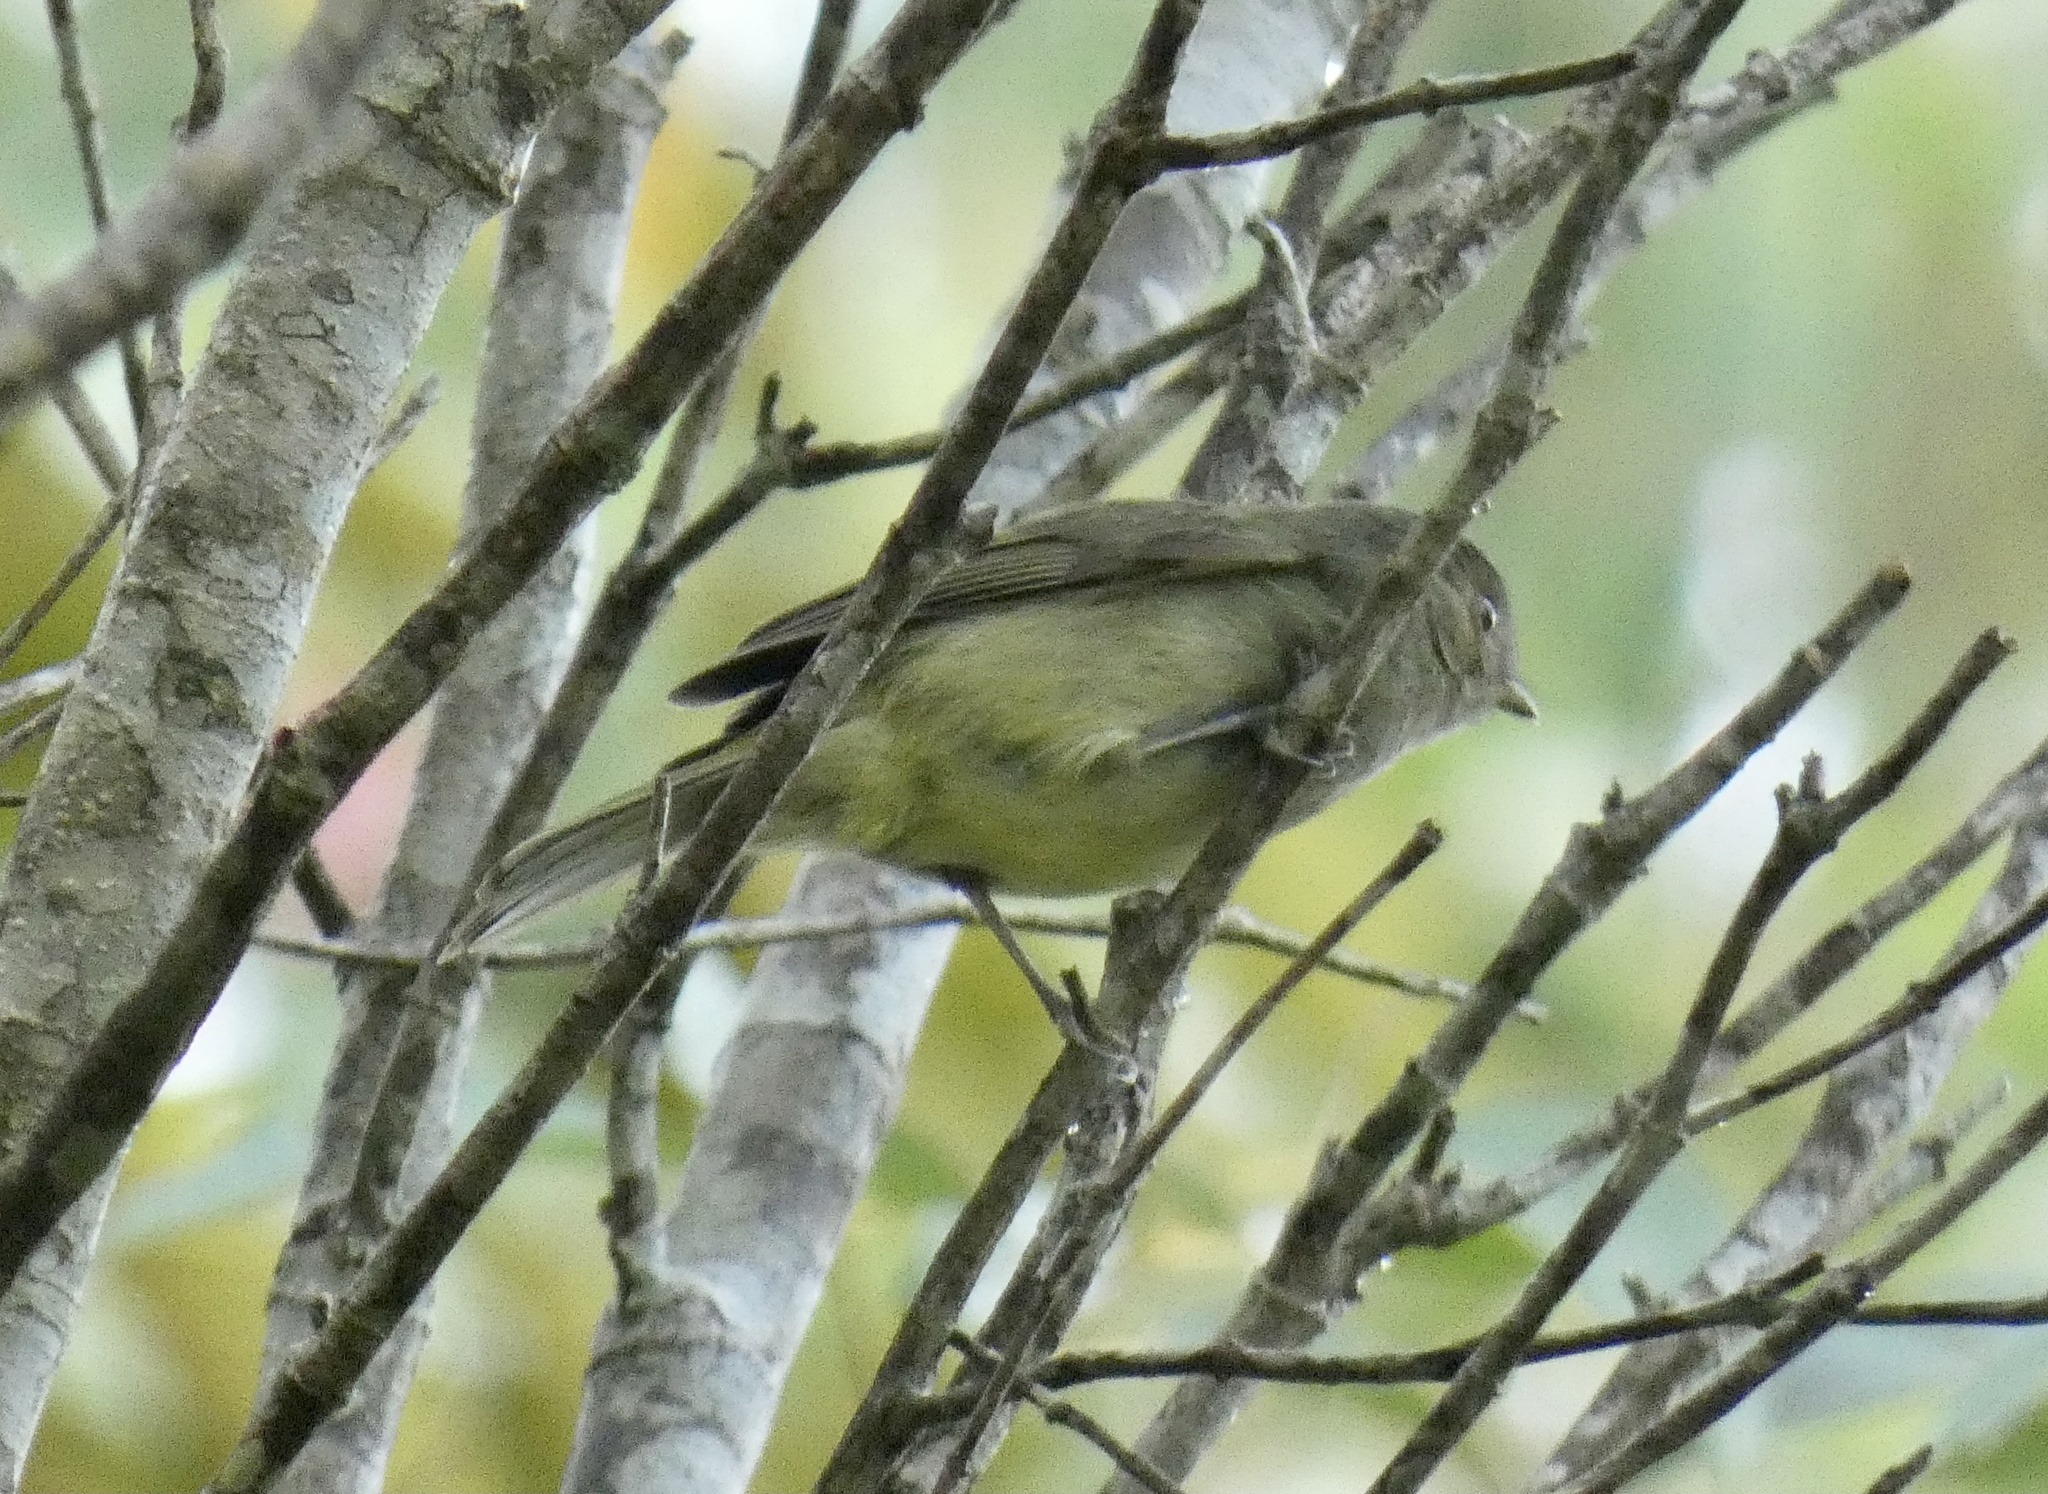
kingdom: Animalia
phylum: Chordata
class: Aves
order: Passeriformes
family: Pipridae
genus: Neopelma
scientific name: Neopelma chrysolophum
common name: Serra do mar tyrant-manakin
